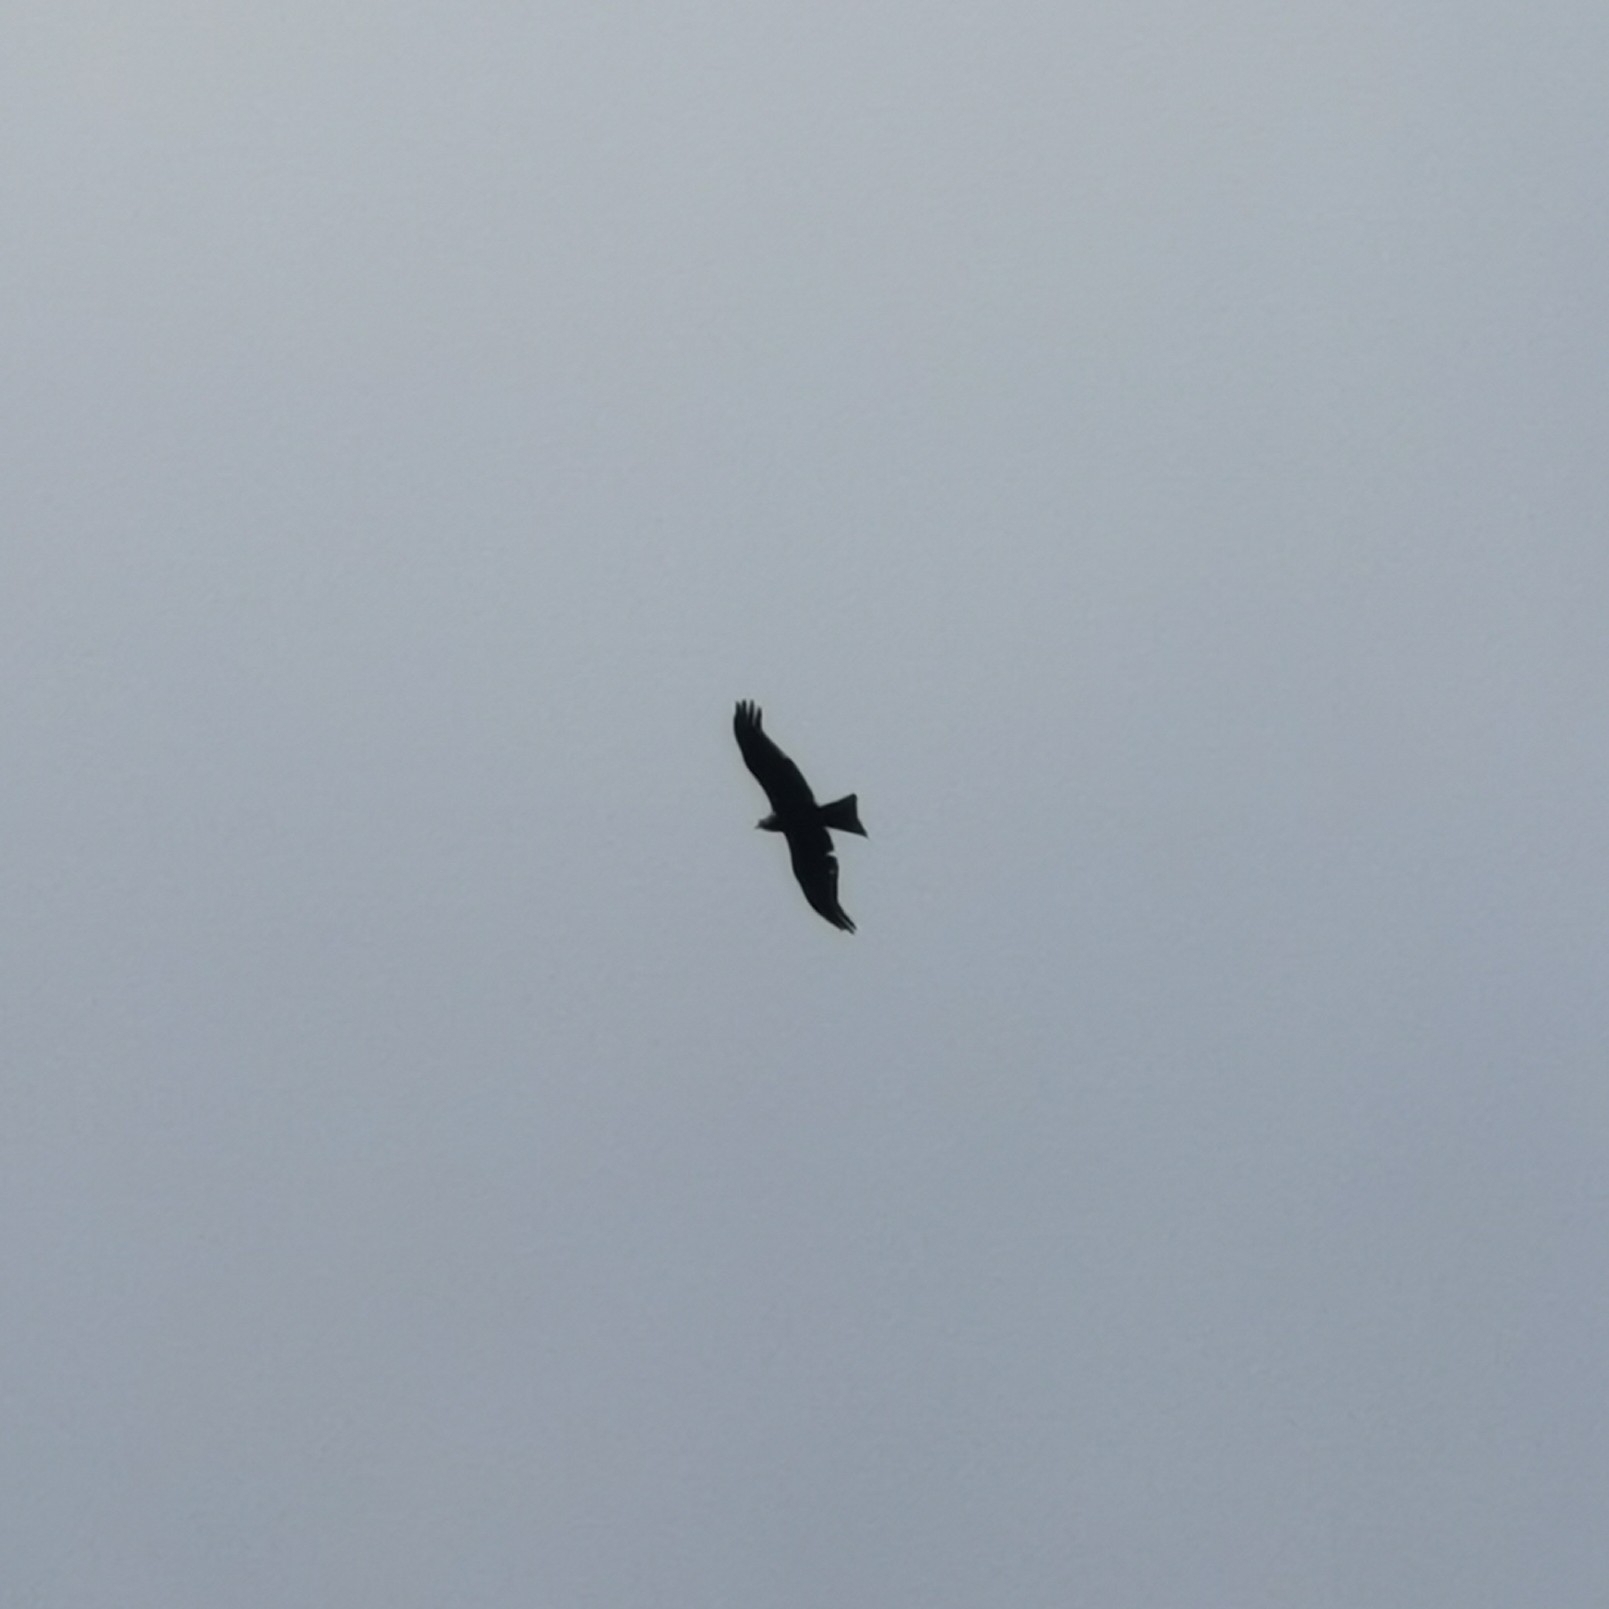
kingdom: Animalia
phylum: Chordata
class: Aves
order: Accipitriformes
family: Accipitridae
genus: Milvus
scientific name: Milvus migrans
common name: Black kite
